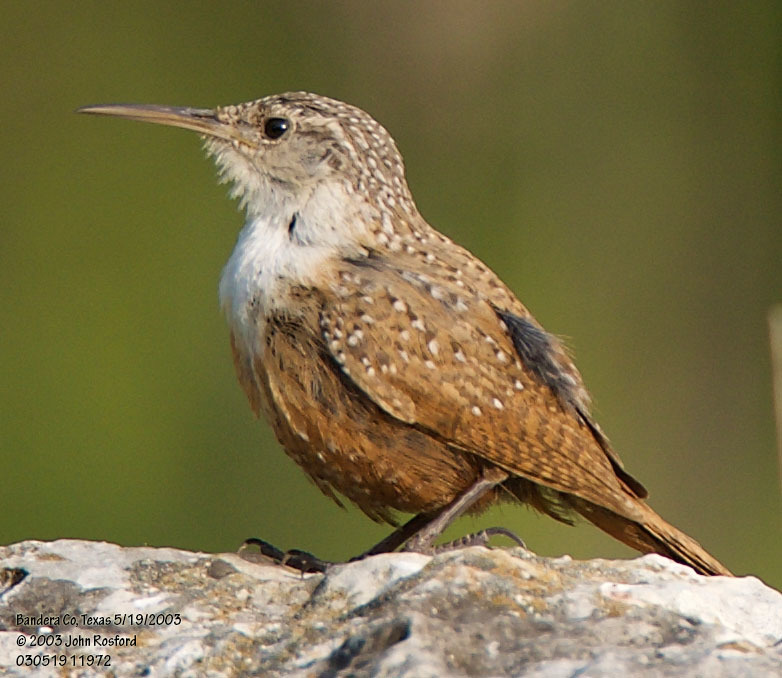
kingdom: Animalia
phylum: Chordata
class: Aves
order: Passeriformes
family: Troglodytidae
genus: Catherpes
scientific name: Catherpes mexicanus
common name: Canyon wren
